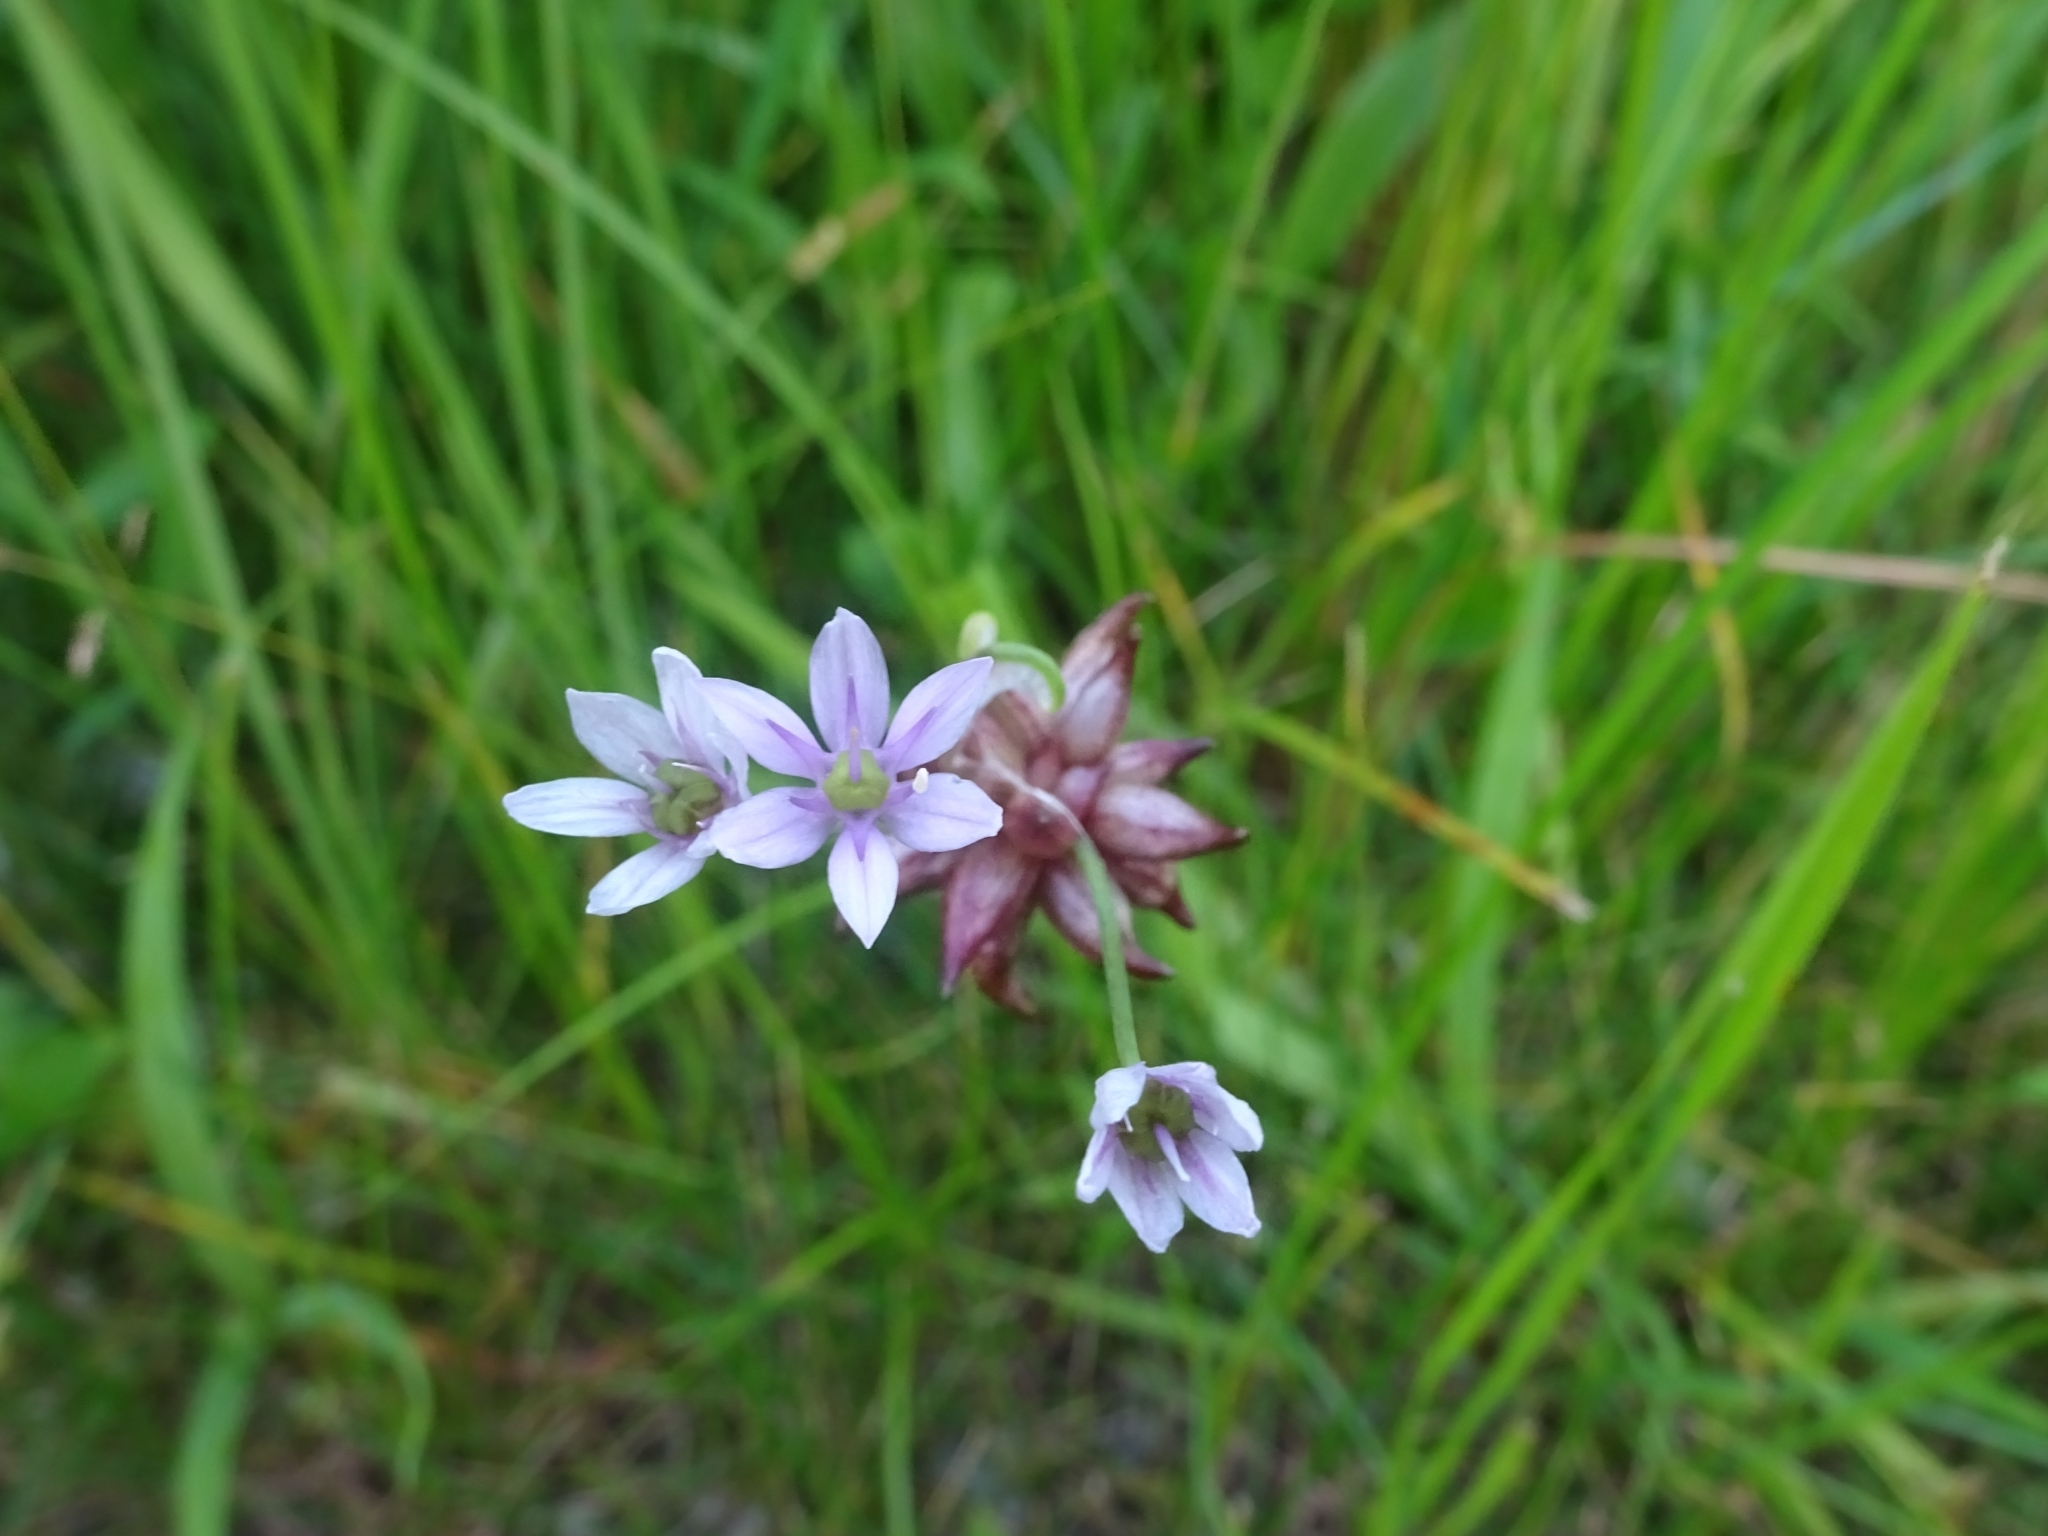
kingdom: Plantae
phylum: Tracheophyta
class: Liliopsida
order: Asparagales
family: Amaryllidaceae
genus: Allium
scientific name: Allium canadense
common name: Meadow garlic
